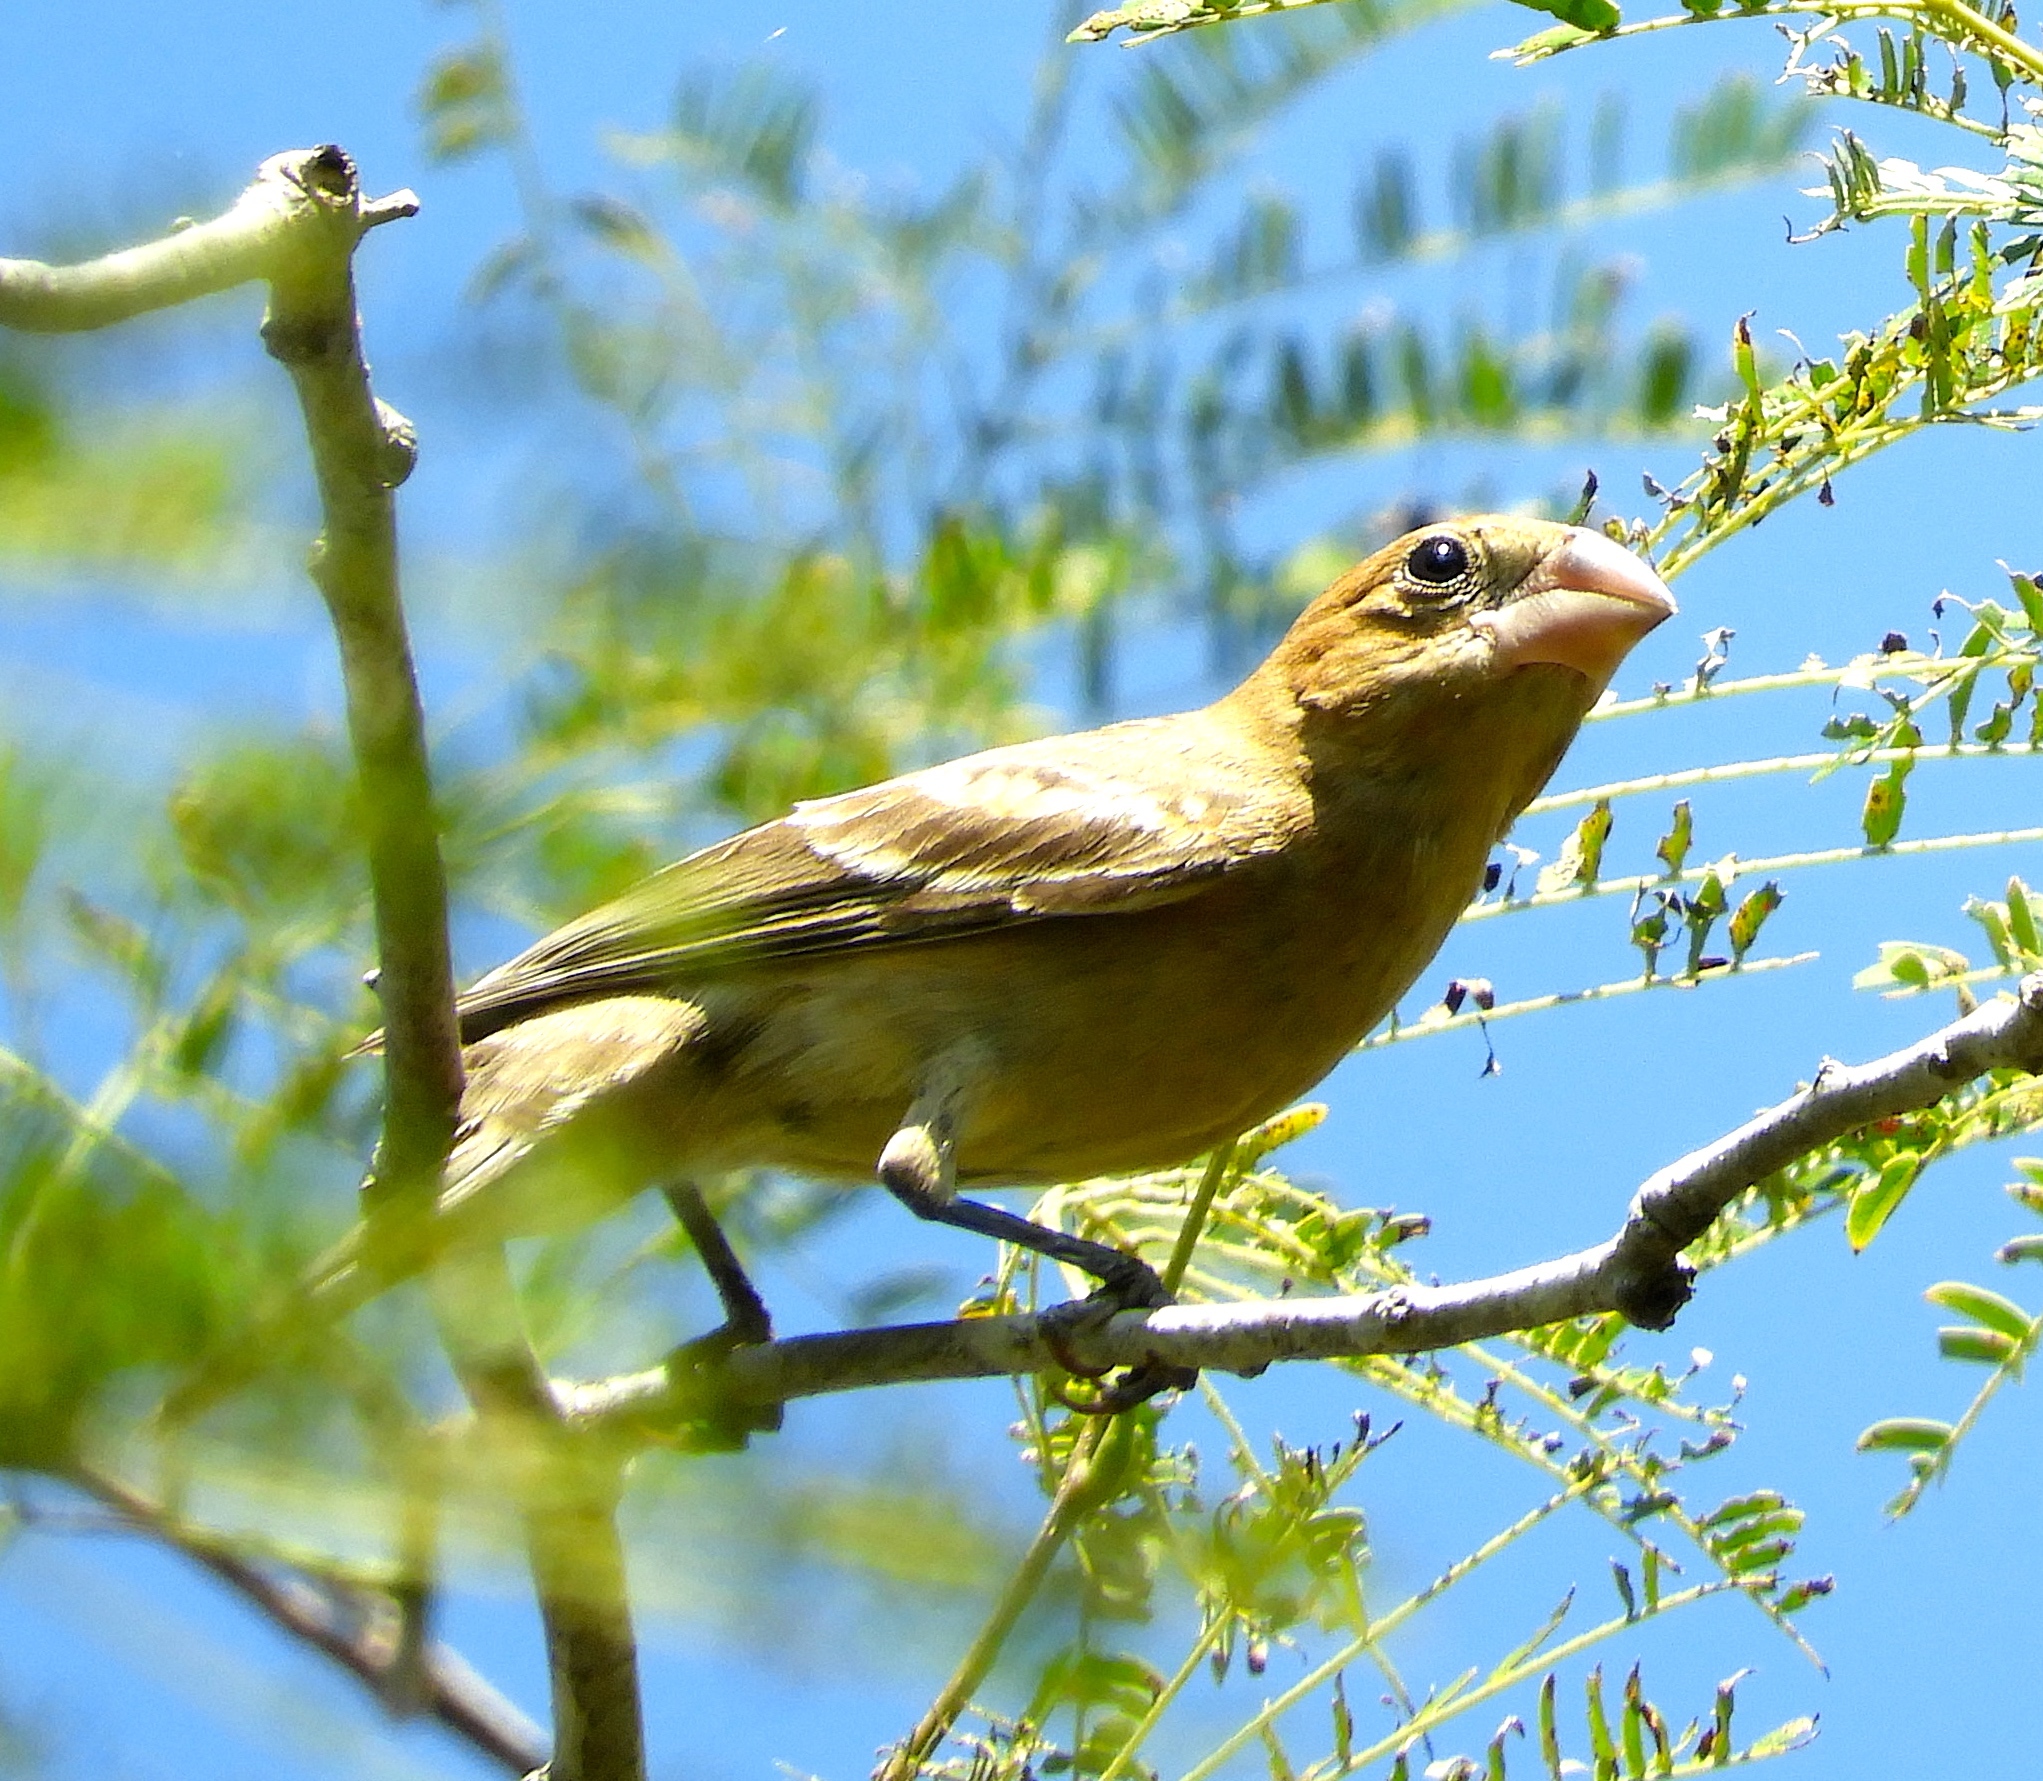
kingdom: Animalia
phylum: Chordata
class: Aves
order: Passeriformes
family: Cardinalidae
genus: Passerina
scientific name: Passerina caerulea
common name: Blue grosbeak
